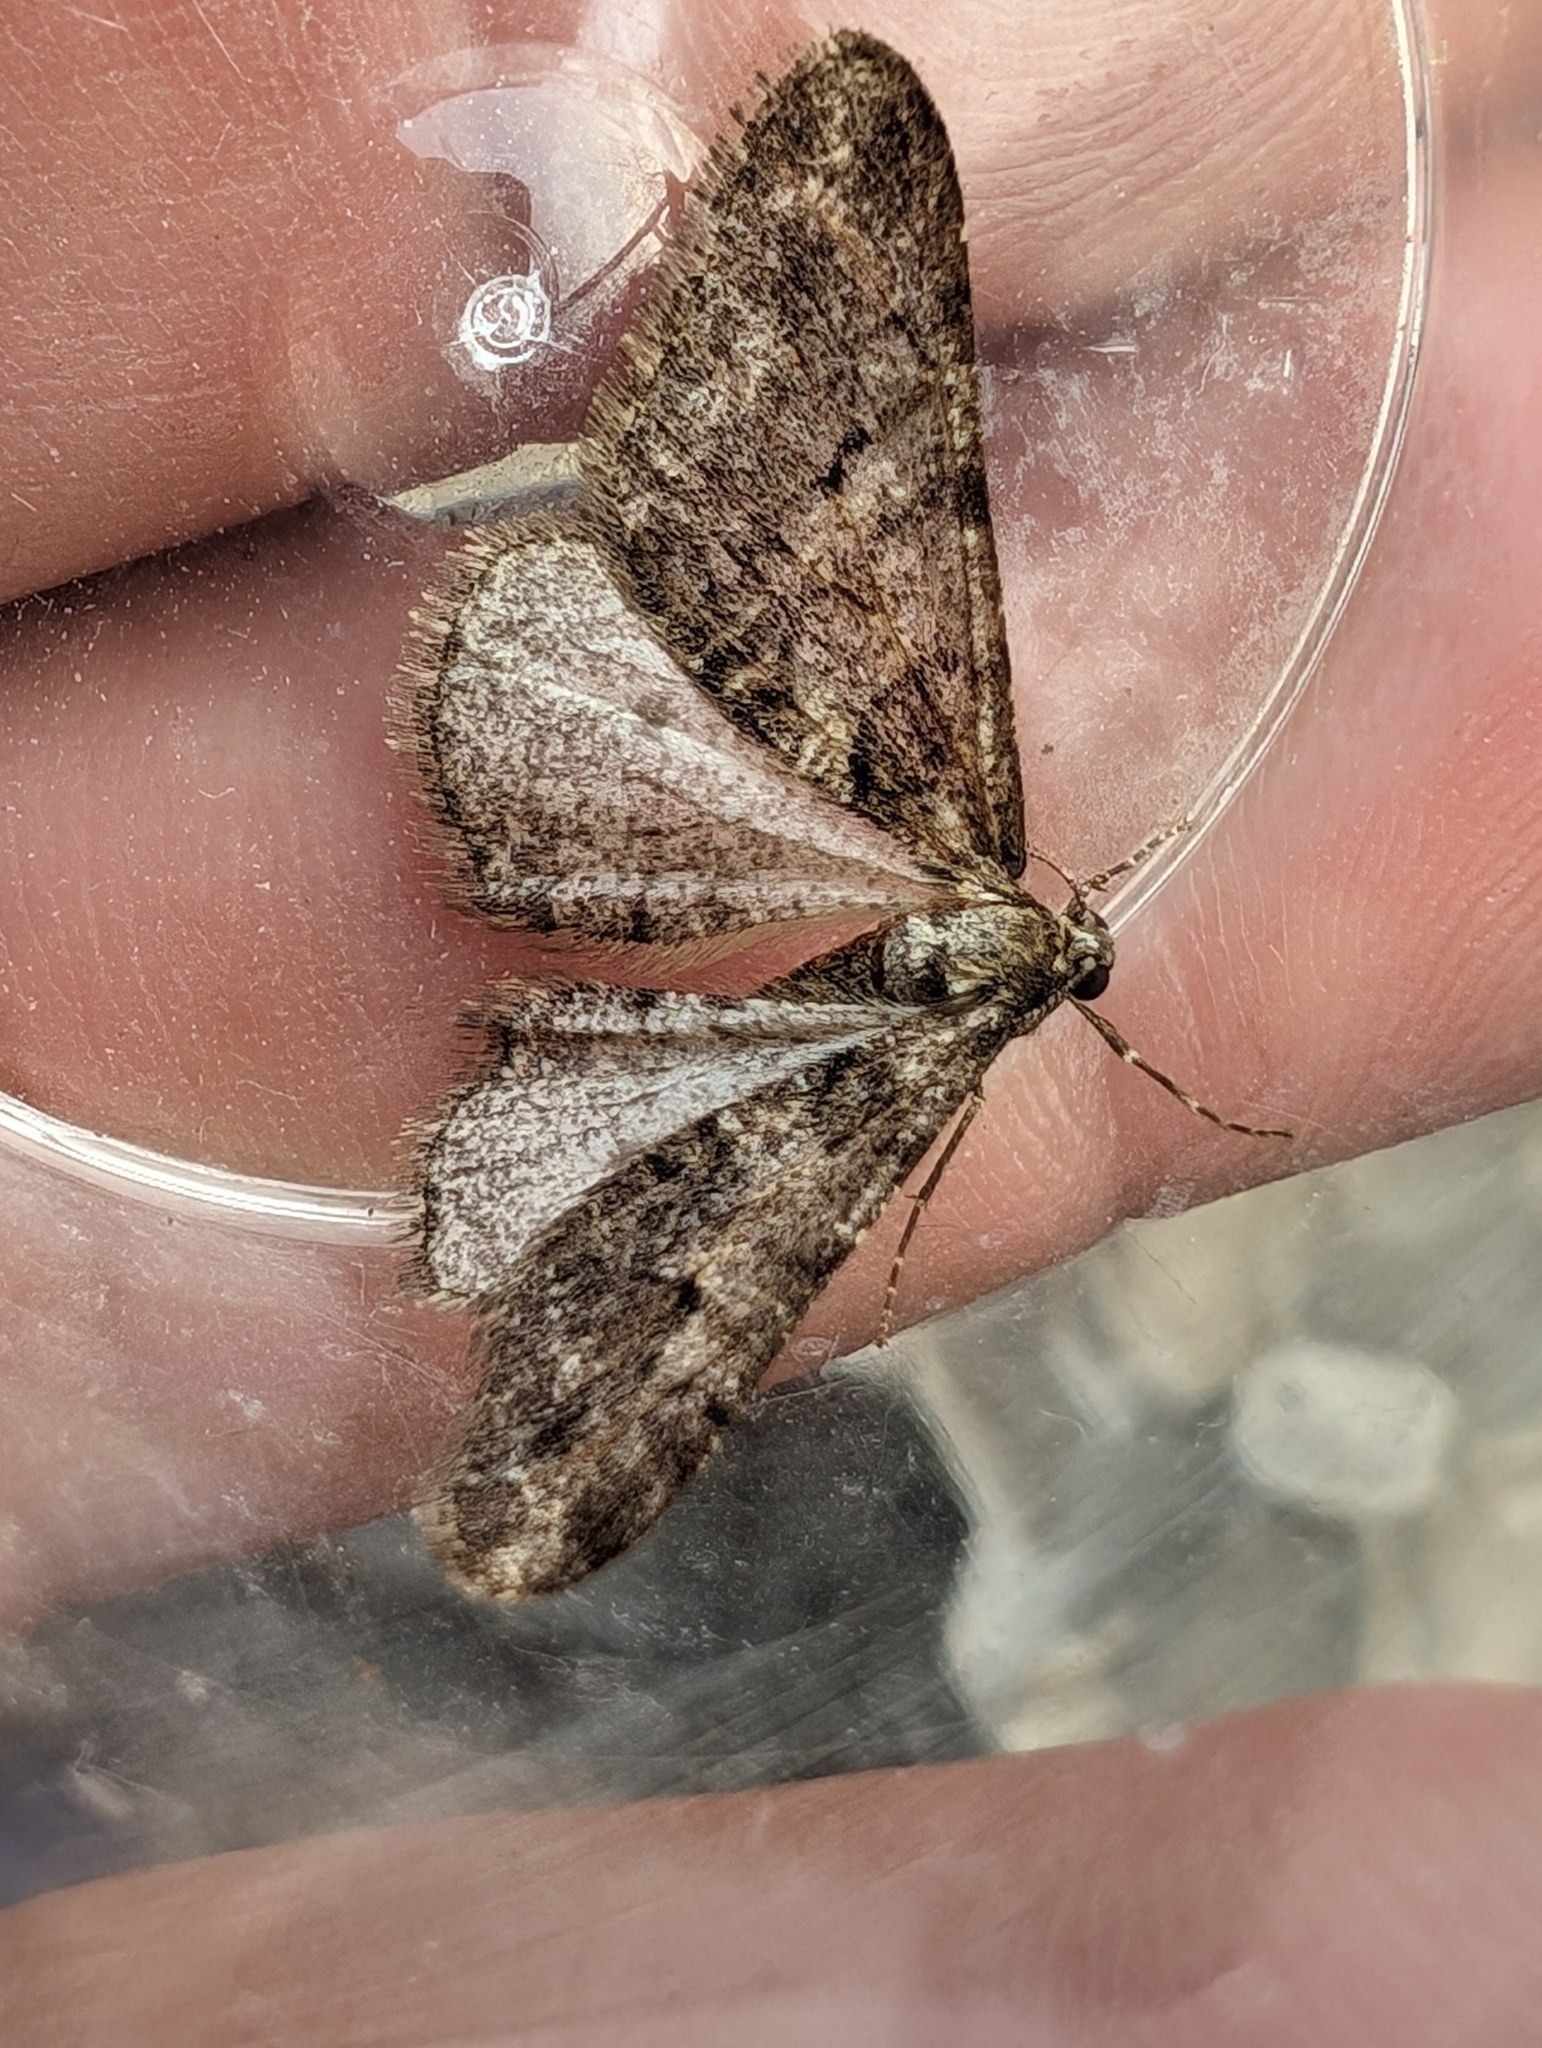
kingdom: Animalia
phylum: Arthropoda
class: Insecta
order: Lepidoptera
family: Geometridae
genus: Agriopis
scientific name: Agriopis leucophaearia
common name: Spring usher
